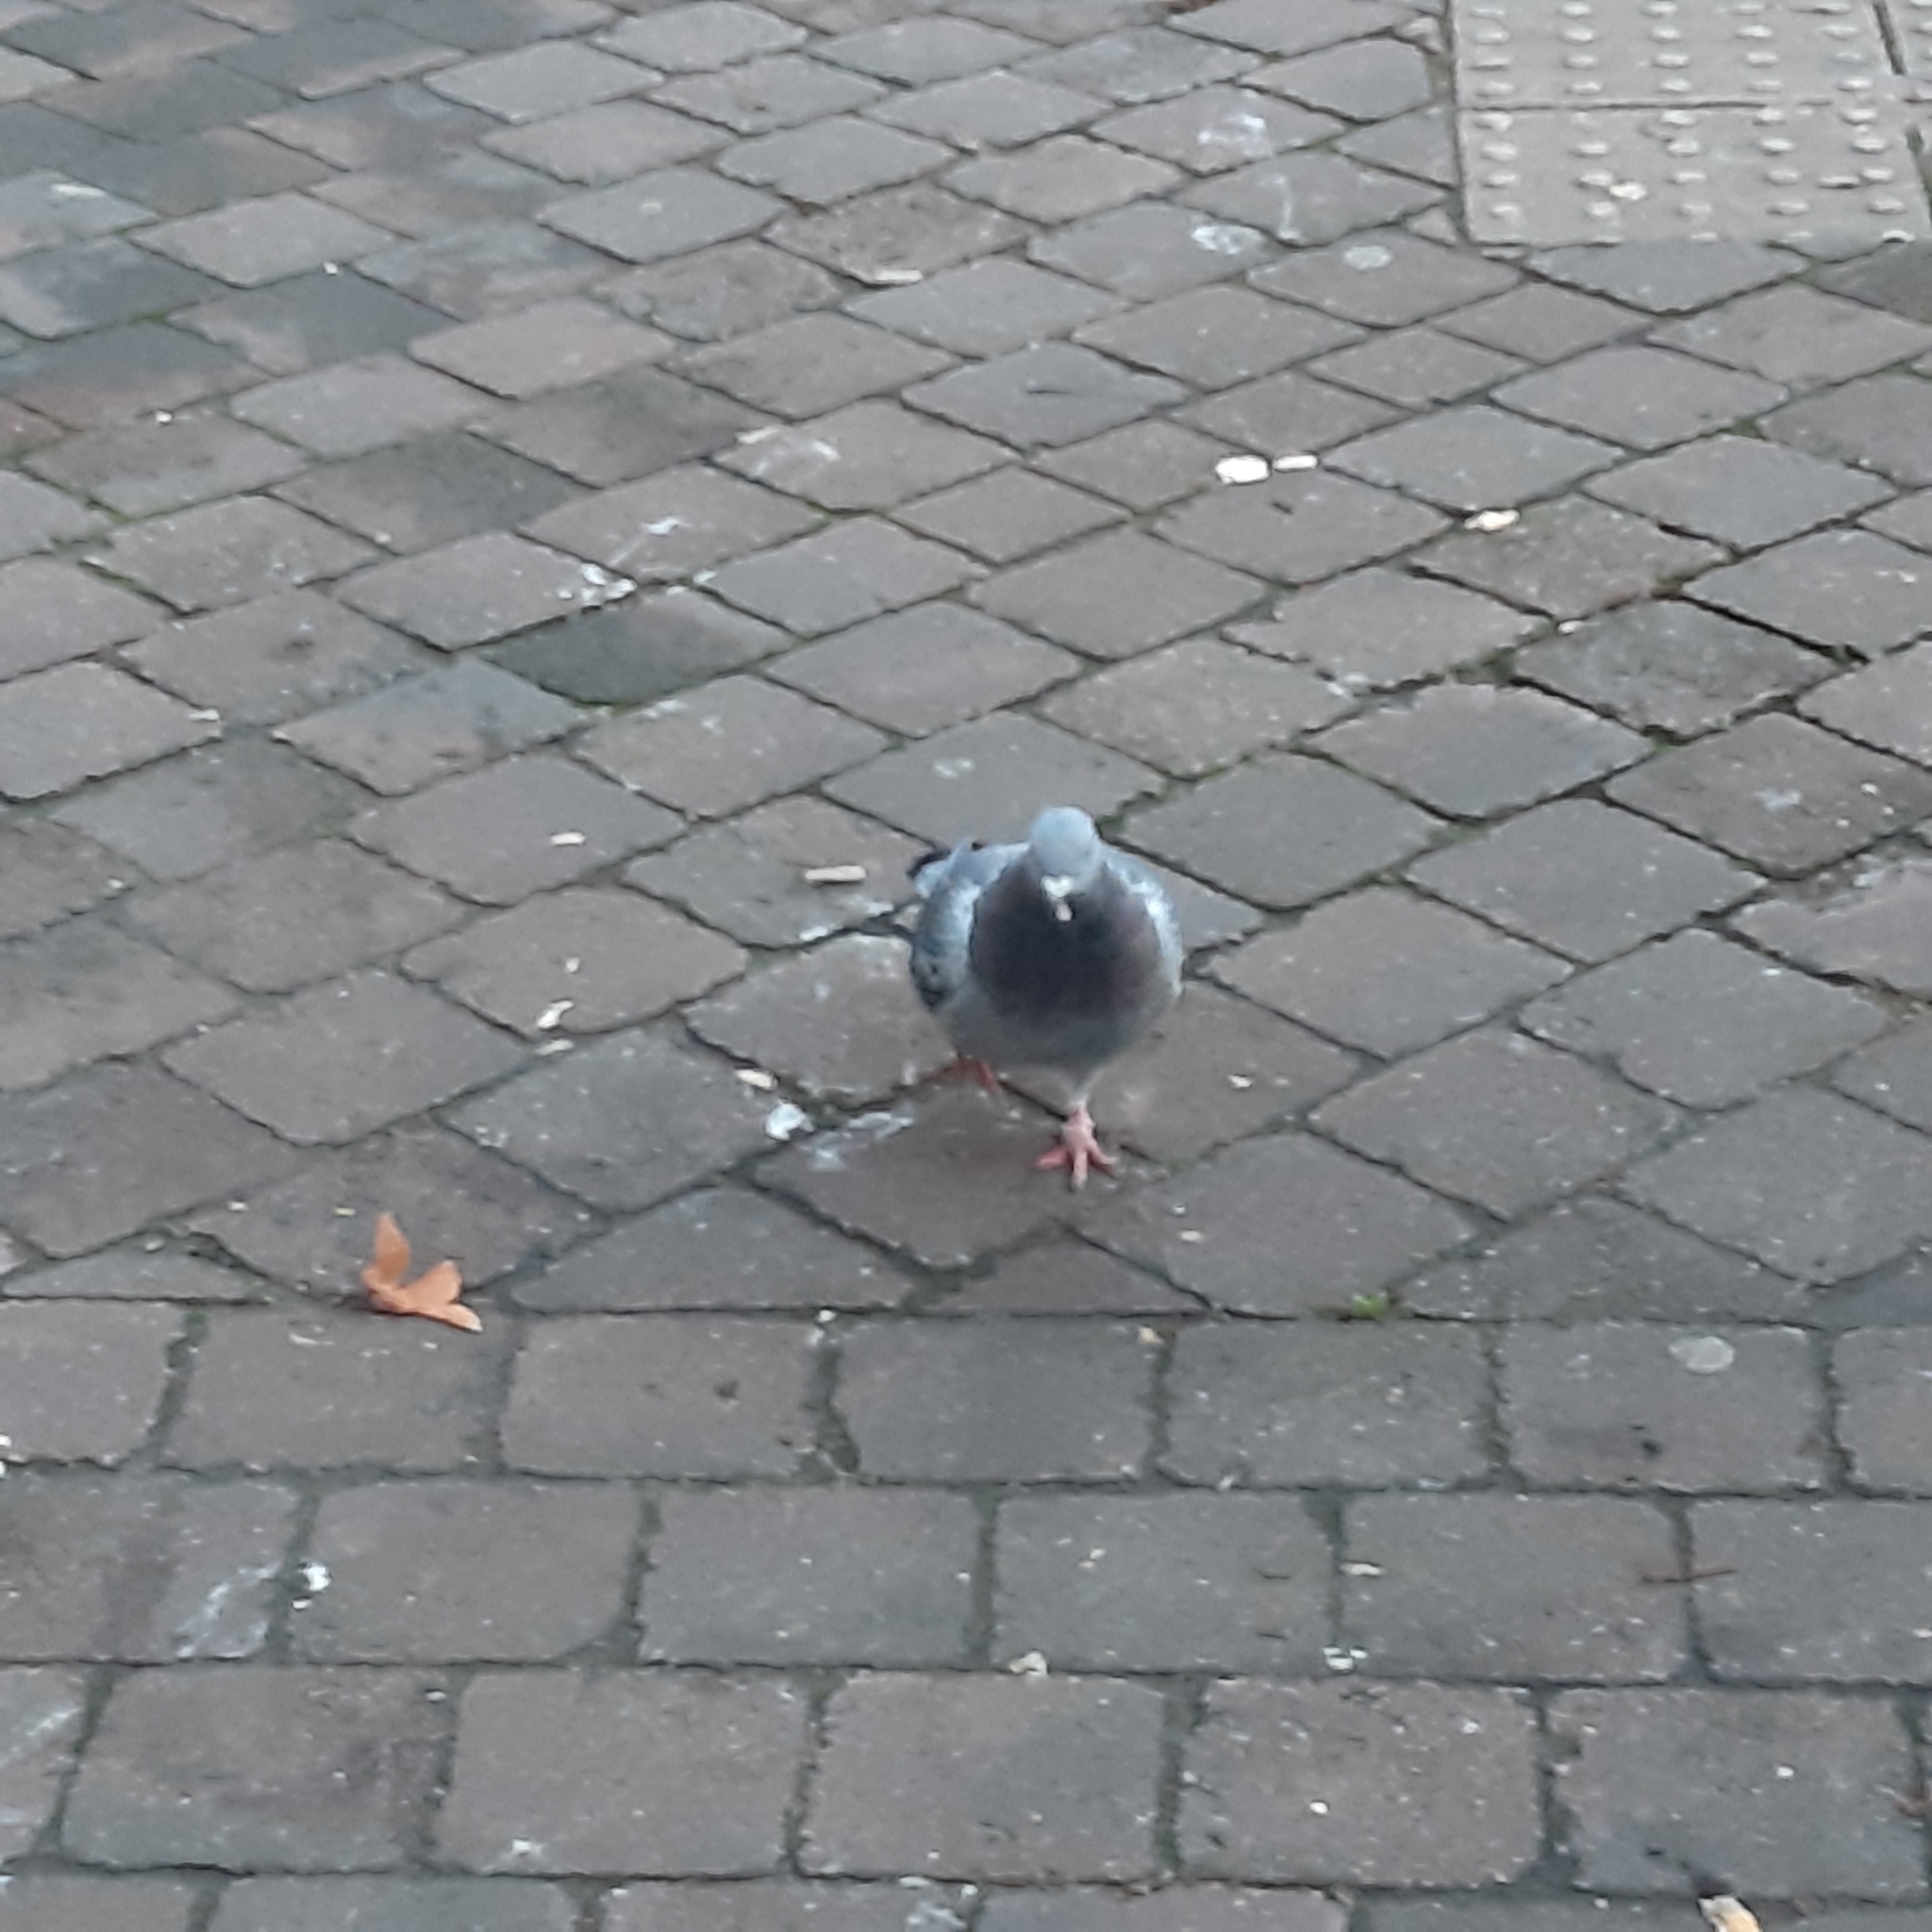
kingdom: Animalia
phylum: Chordata
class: Aves
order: Columbiformes
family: Columbidae
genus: Columba
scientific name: Columba livia
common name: Rock pigeon
